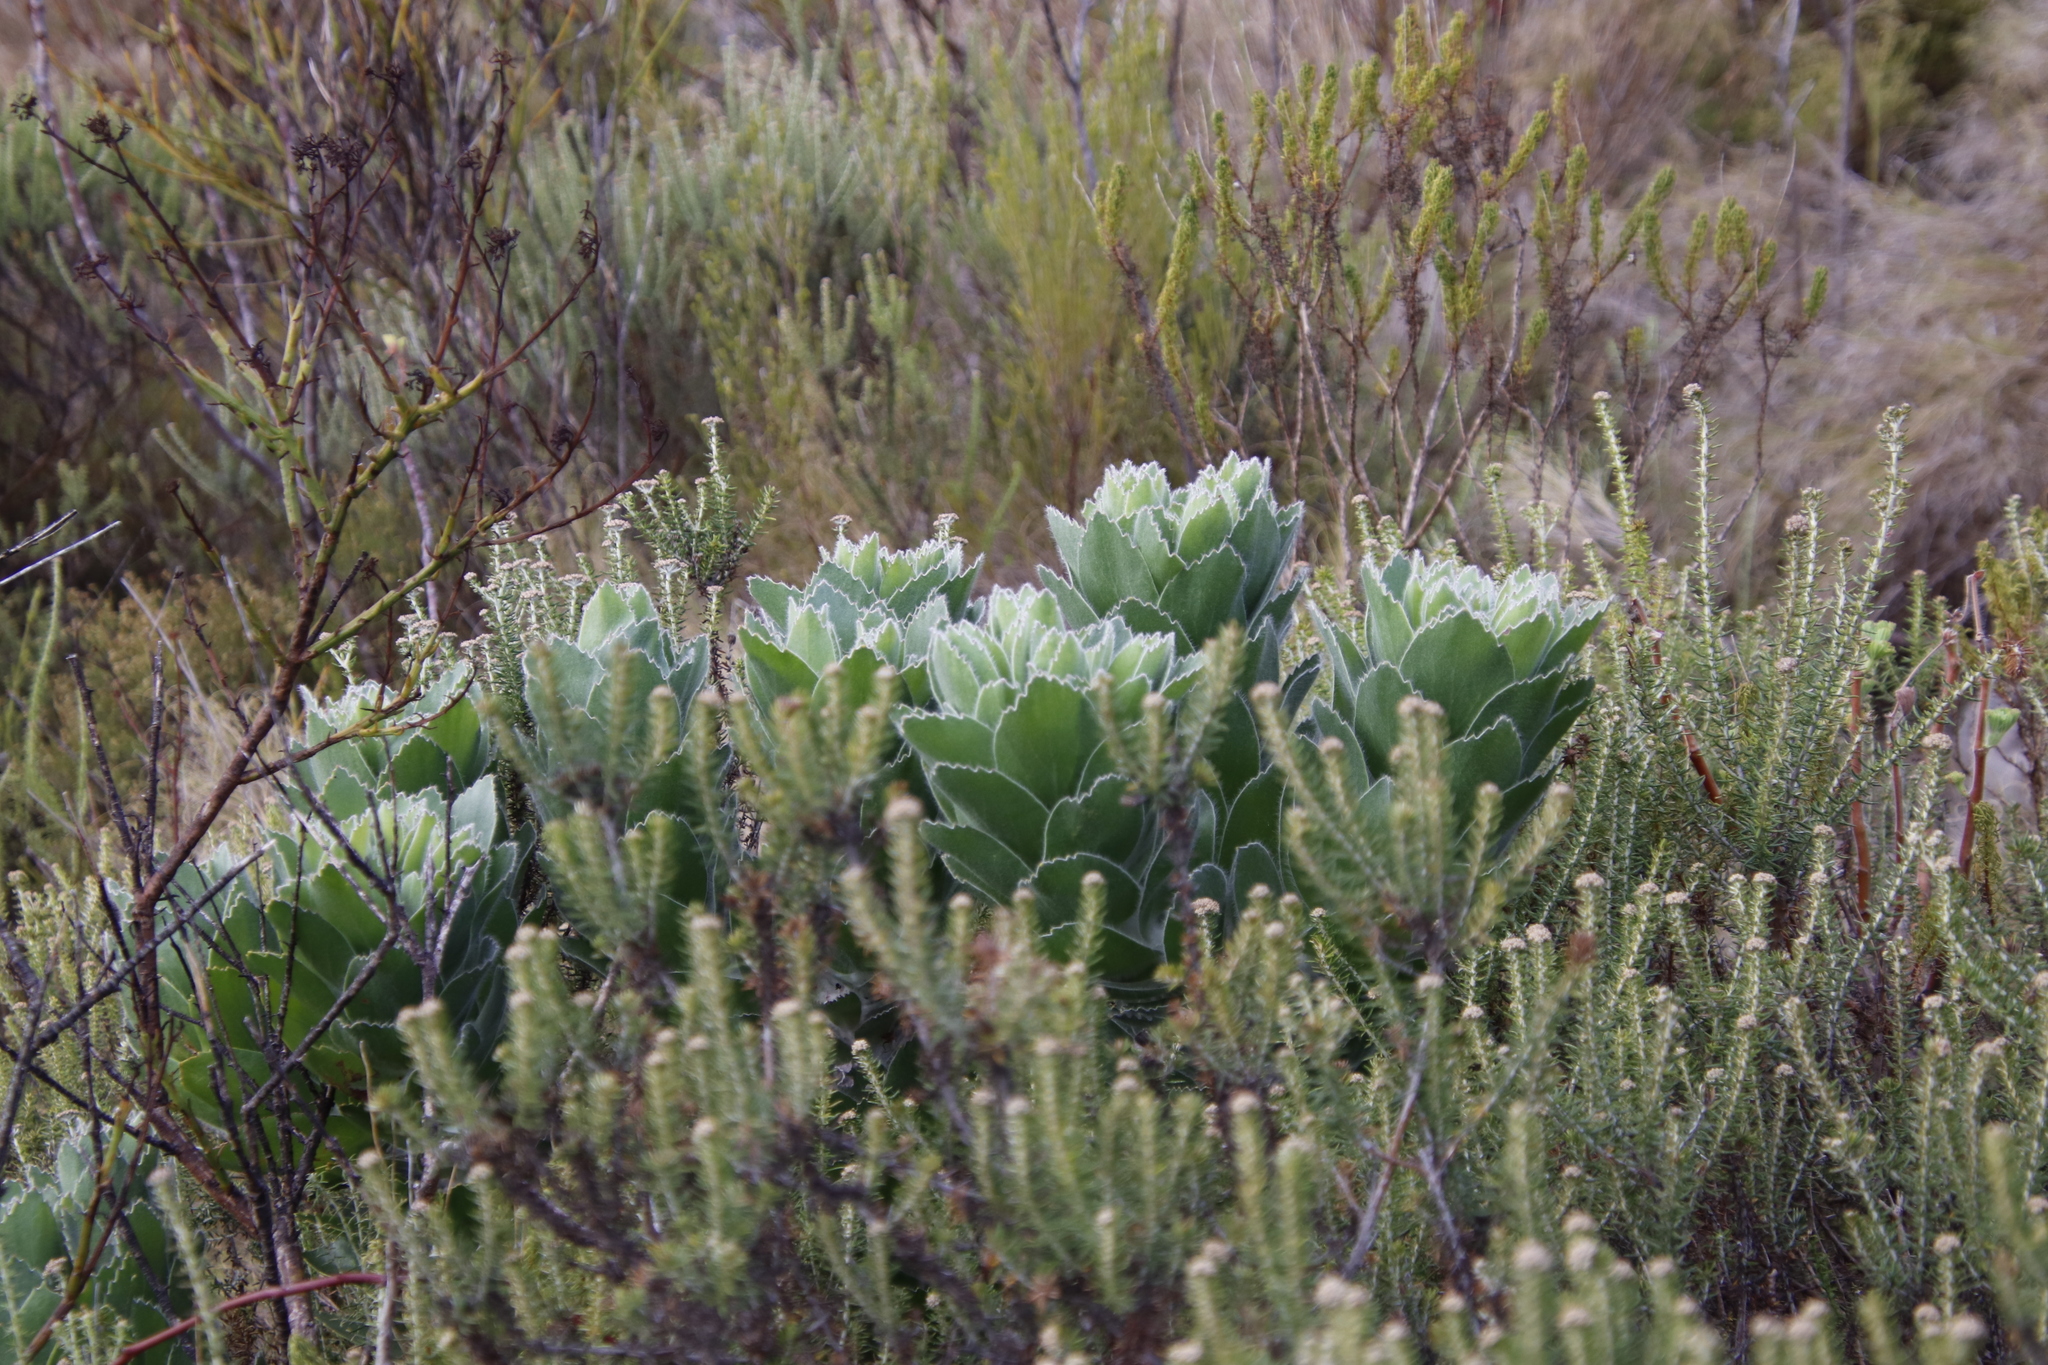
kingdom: Plantae
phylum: Tracheophyta
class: Magnoliopsida
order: Proteales
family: Proteaceae
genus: Leucospermum
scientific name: Leucospermum conocarpodendron
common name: Tree pincushion
